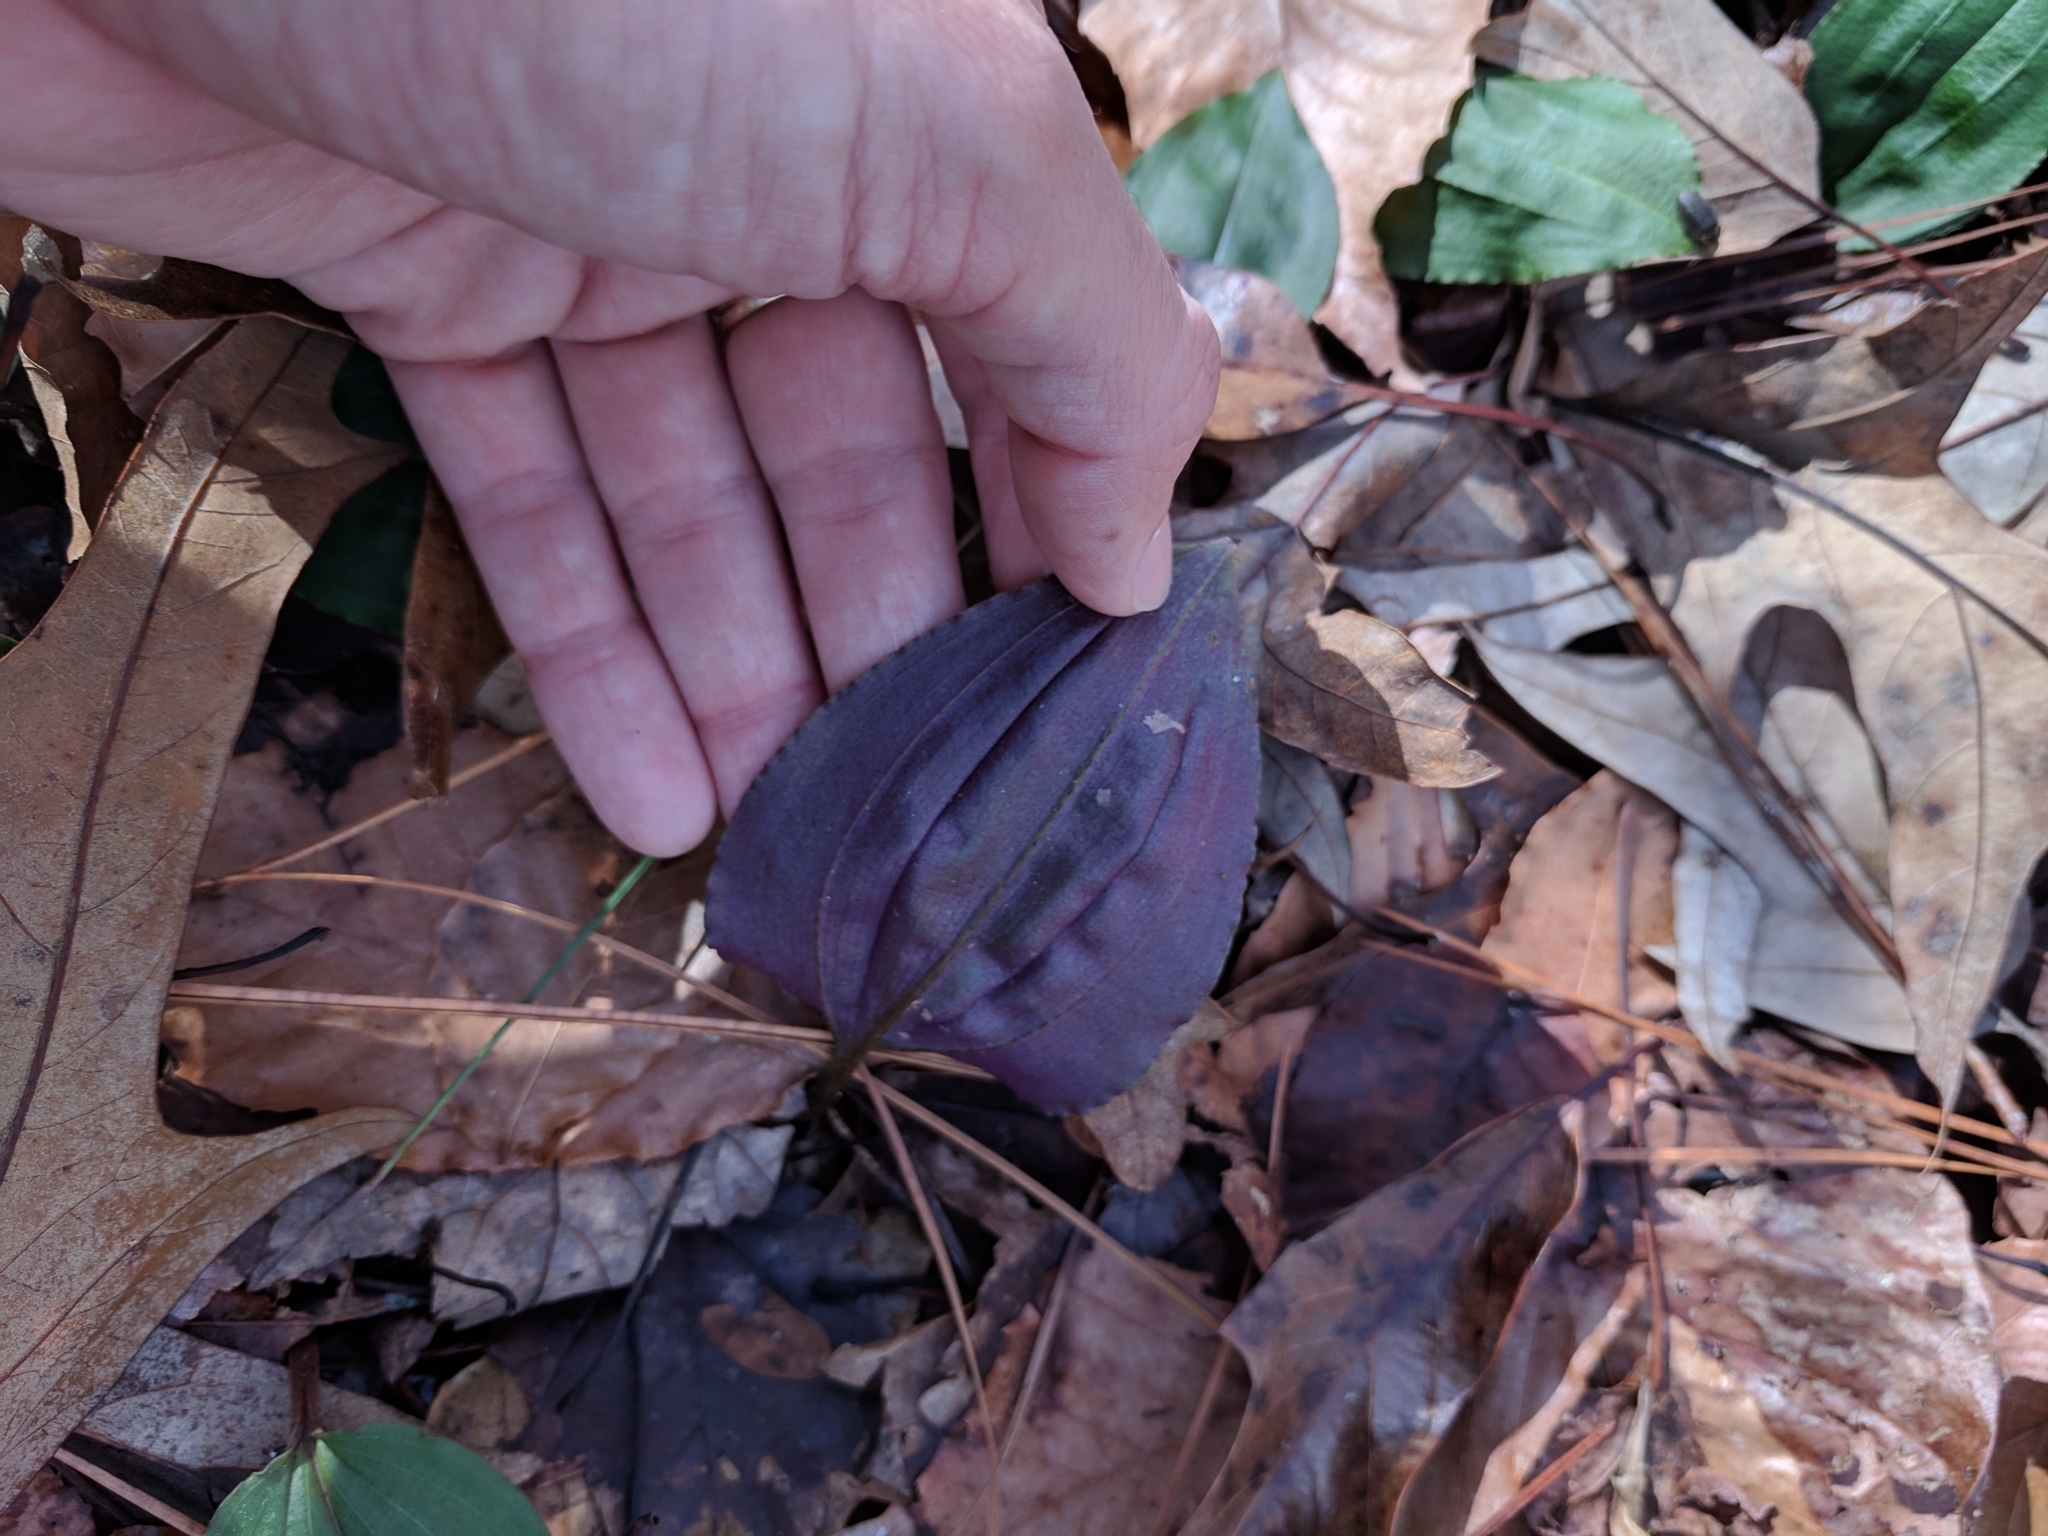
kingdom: Plantae
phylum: Tracheophyta
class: Liliopsida
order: Asparagales
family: Orchidaceae
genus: Tipularia
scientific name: Tipularia discolor
